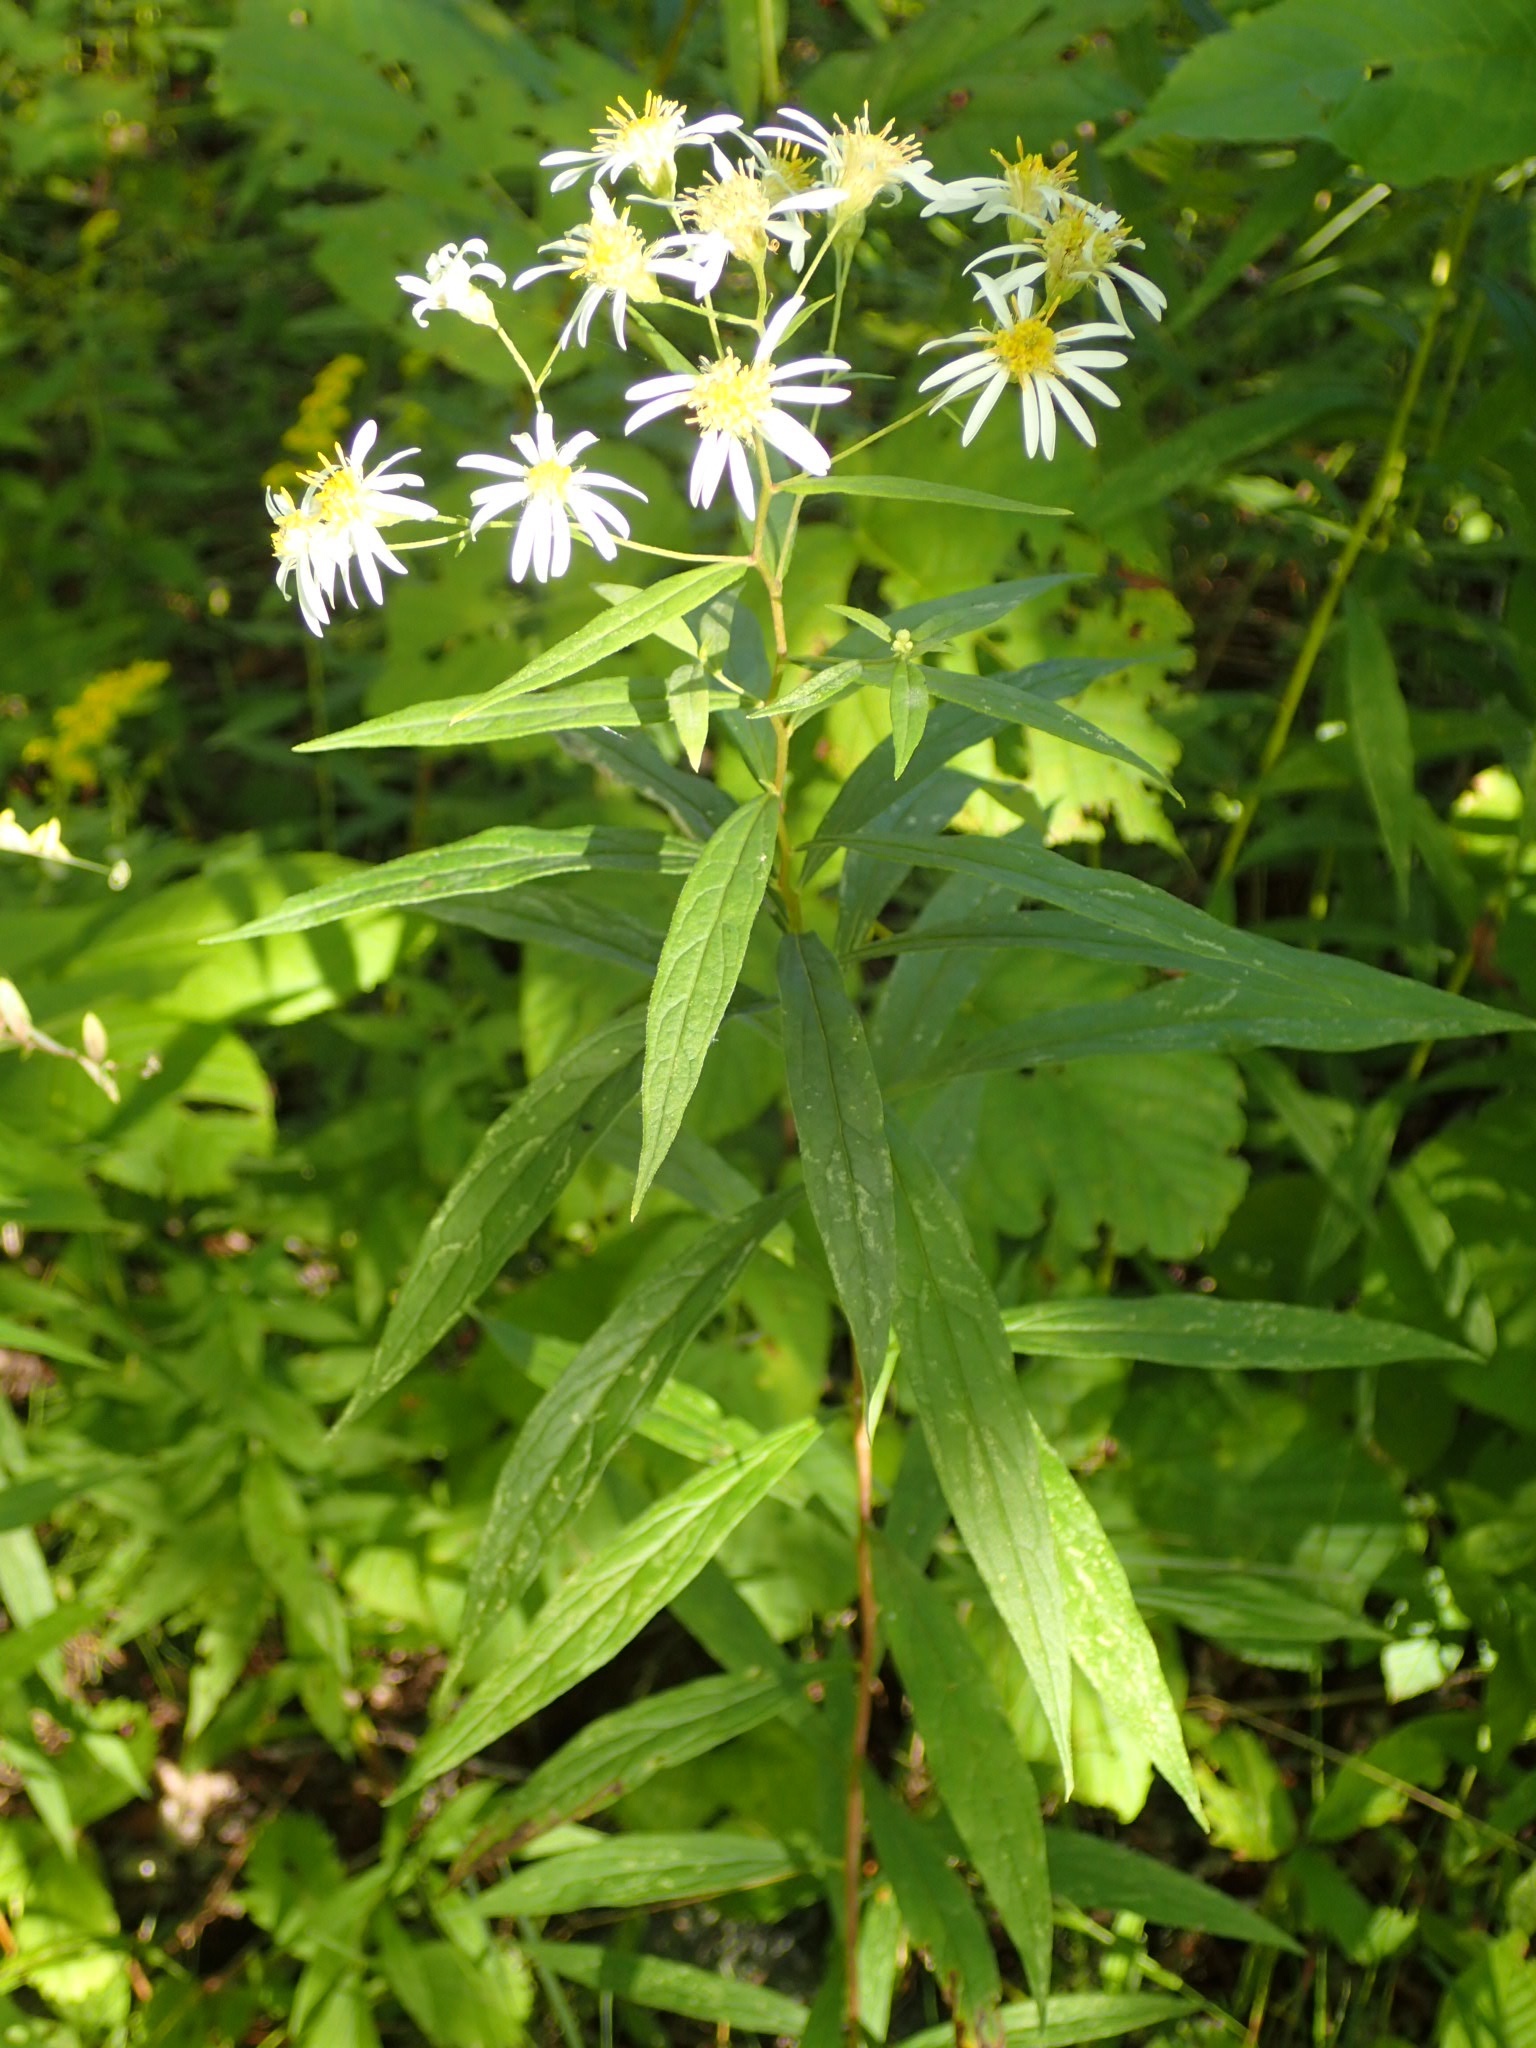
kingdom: Plantae
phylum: Tracheophyta
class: Magnoliopsida
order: Asterales
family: Asteraceae
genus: Doellingeria
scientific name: Doellingeria umbellata
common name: Flat-top white aster
